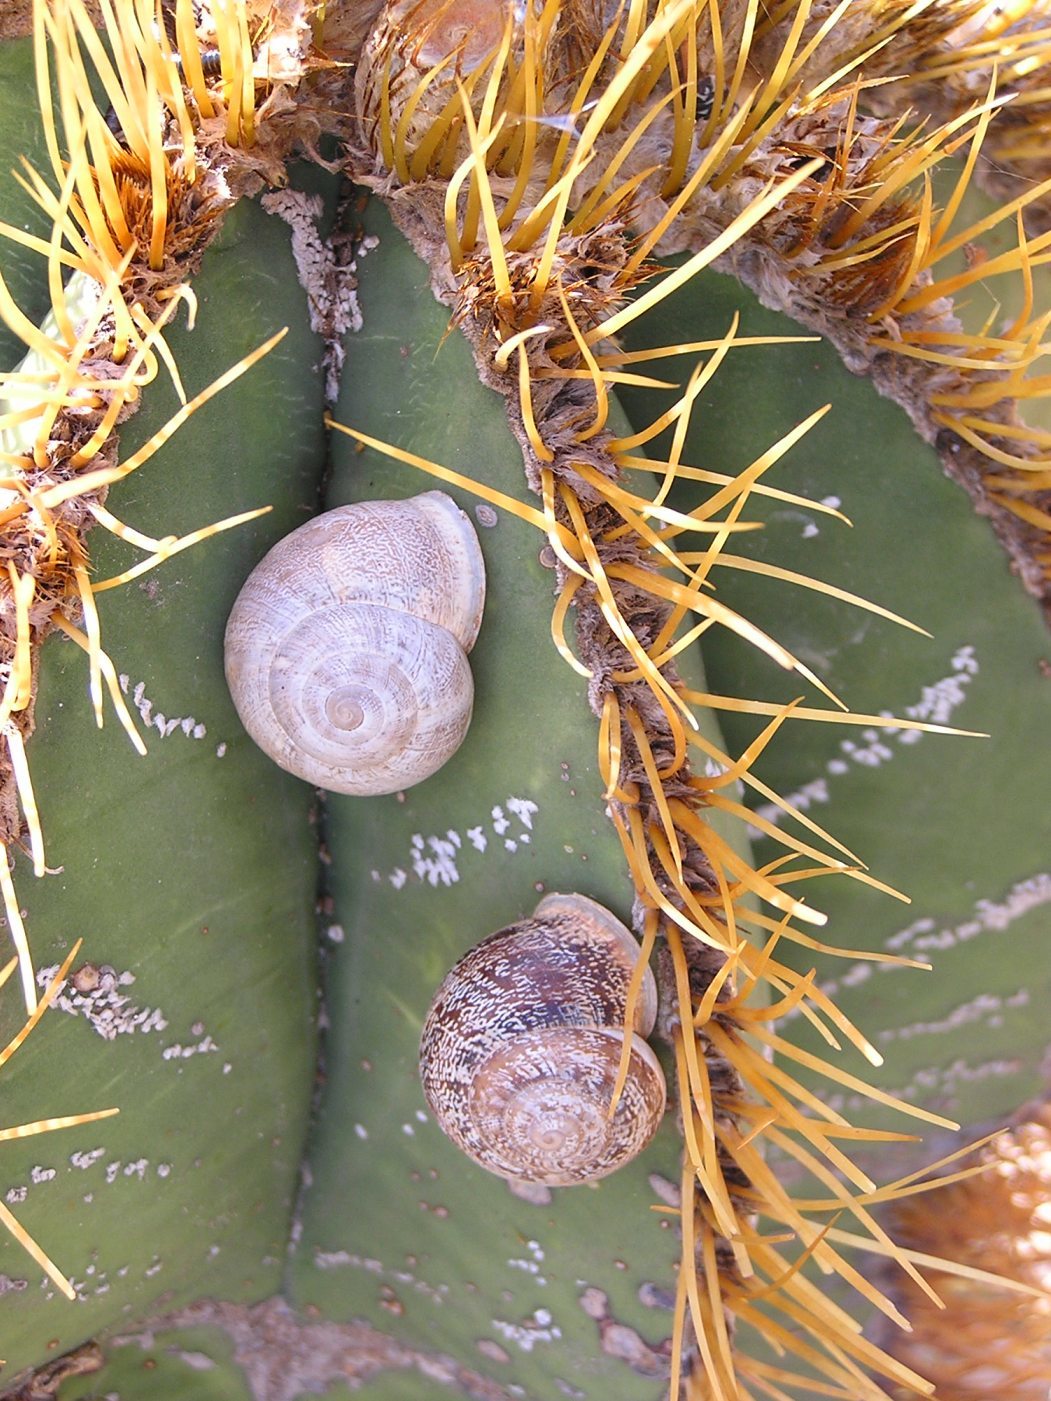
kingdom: Animalia
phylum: Mollusca
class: Gastropoda
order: Stylommatophora
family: Helicidae
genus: Eobania
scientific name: Eobania vermiculata
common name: Chocolateband snail
